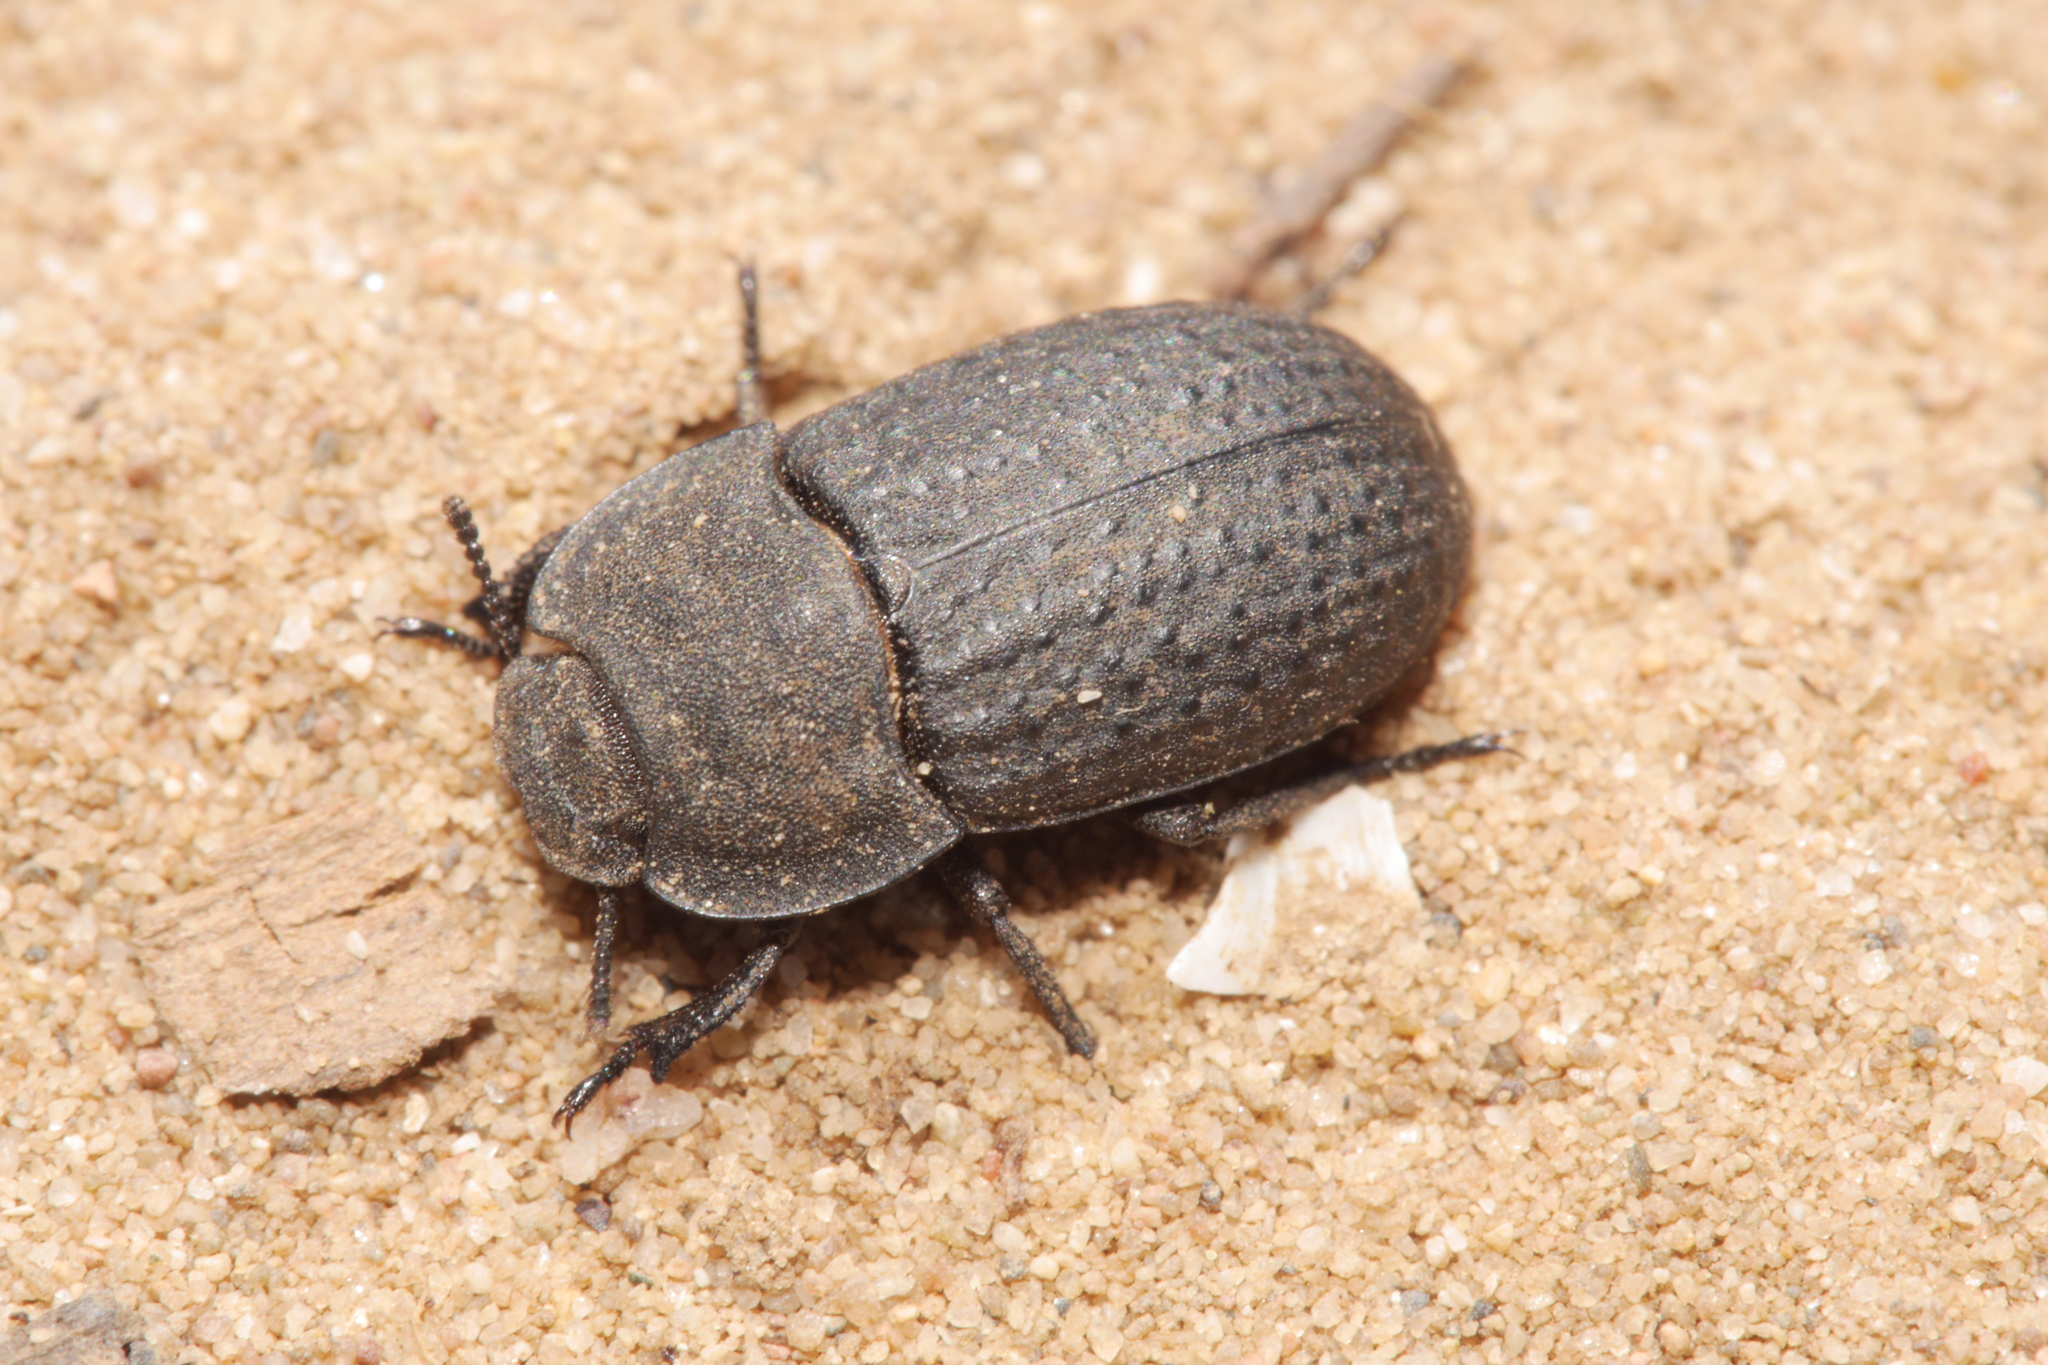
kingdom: Animalia
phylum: Arthropoda
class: Insecta
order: Coleoptera
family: Tenebrionidae
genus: Opatrum
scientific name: Opatrum sabulosum
